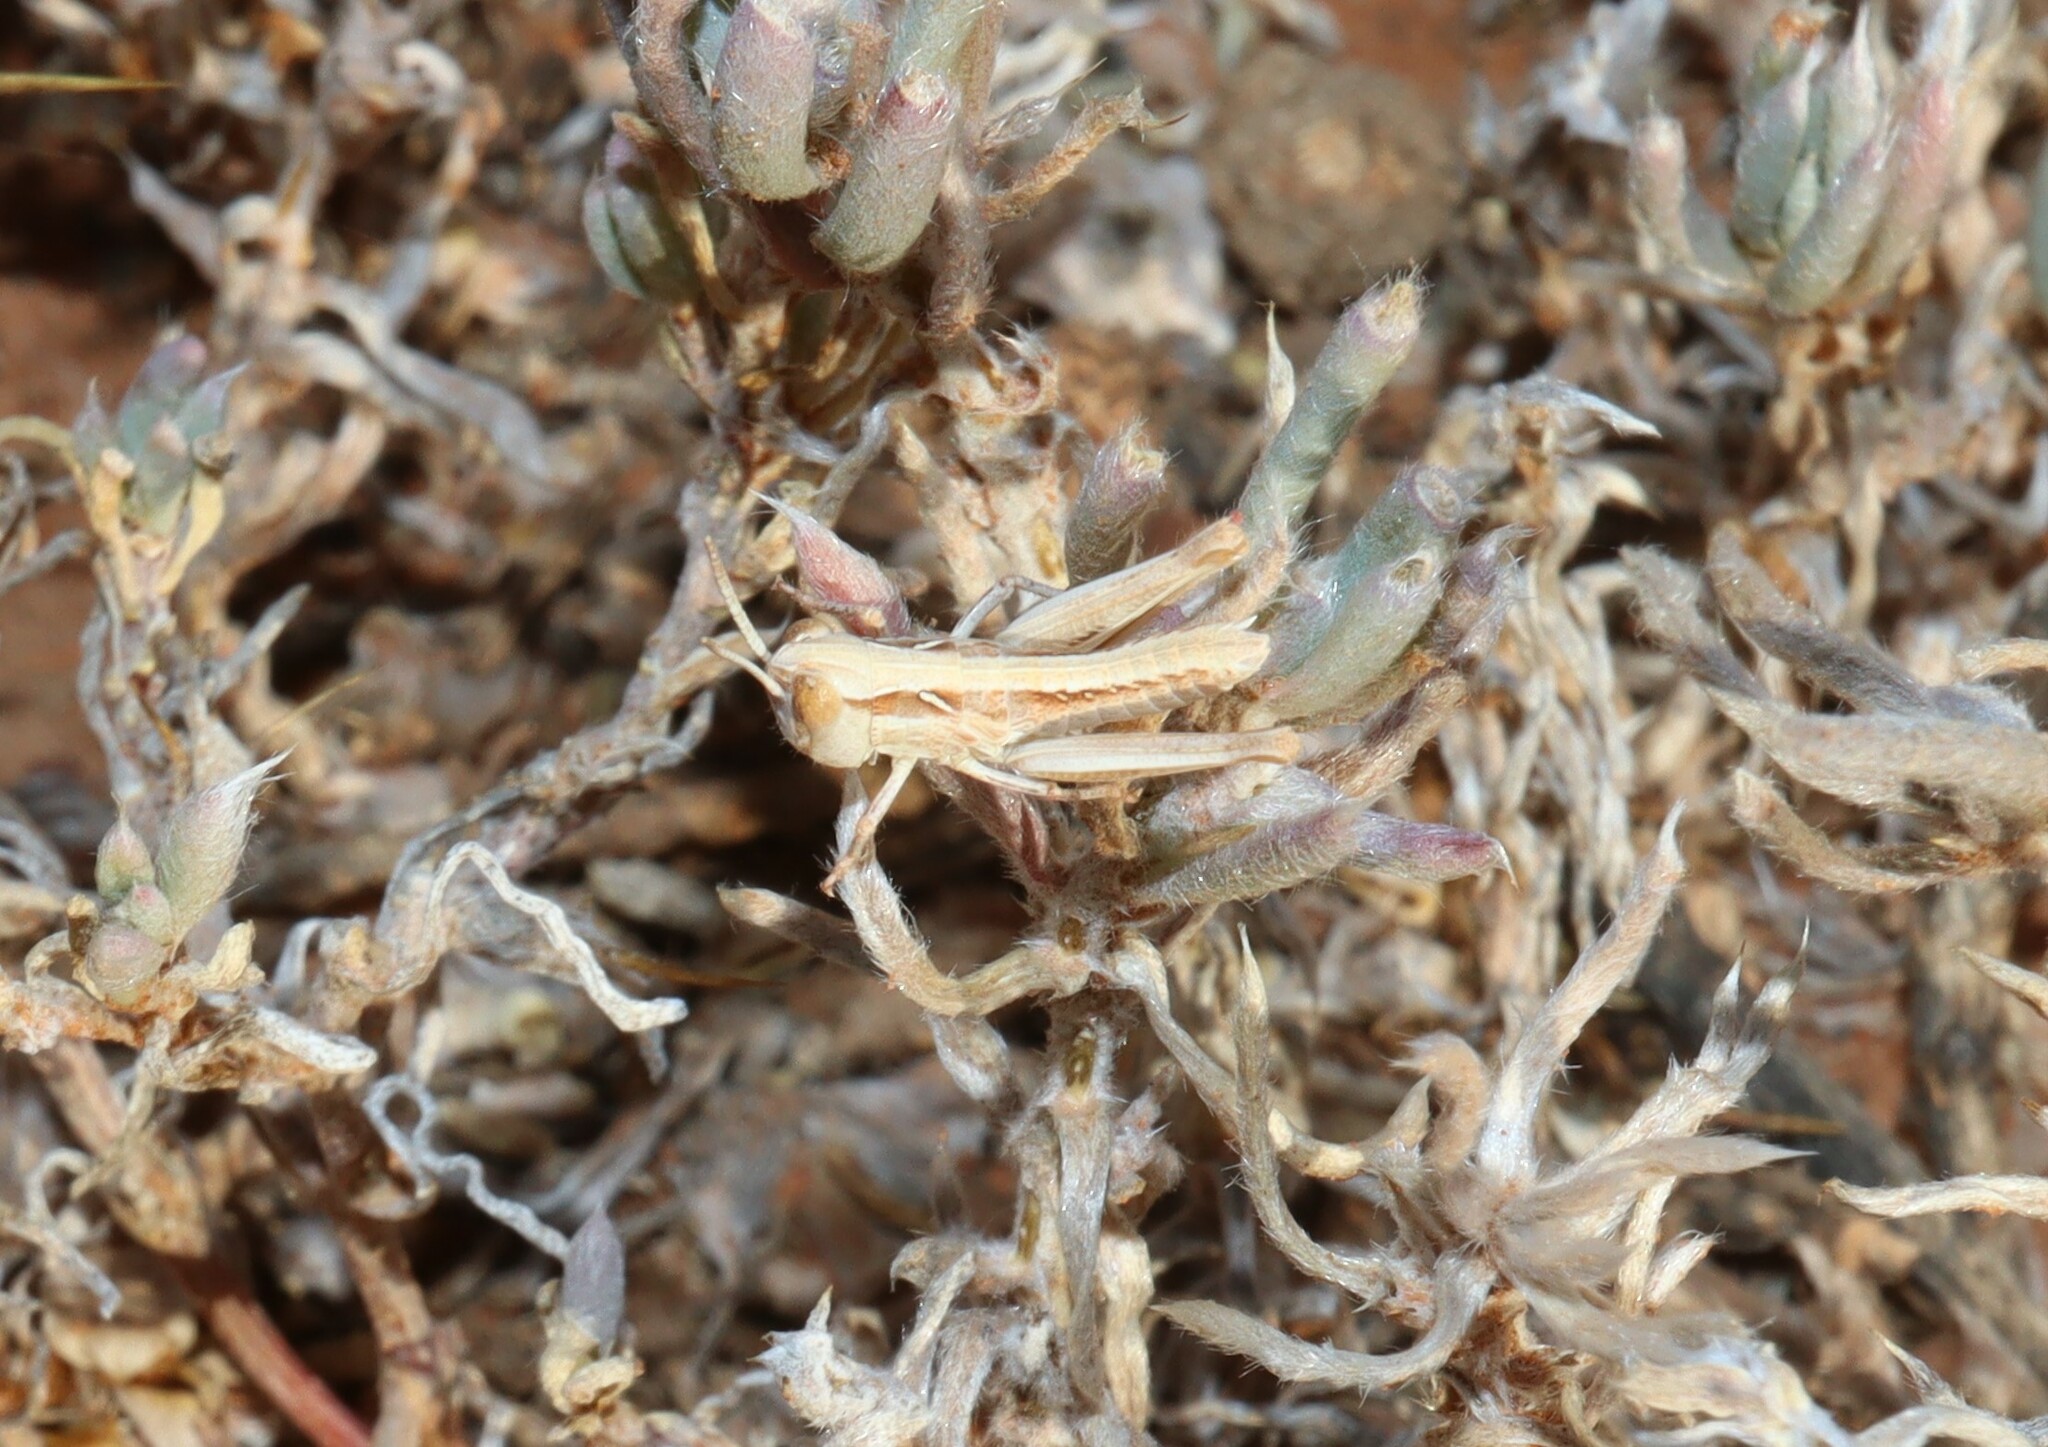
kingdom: Animalia
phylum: Arthropoda
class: Insecta
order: Orthoptera
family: Acrididae
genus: Chortoicetes
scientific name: Chortoicetes terminifera
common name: Australian plague locust
